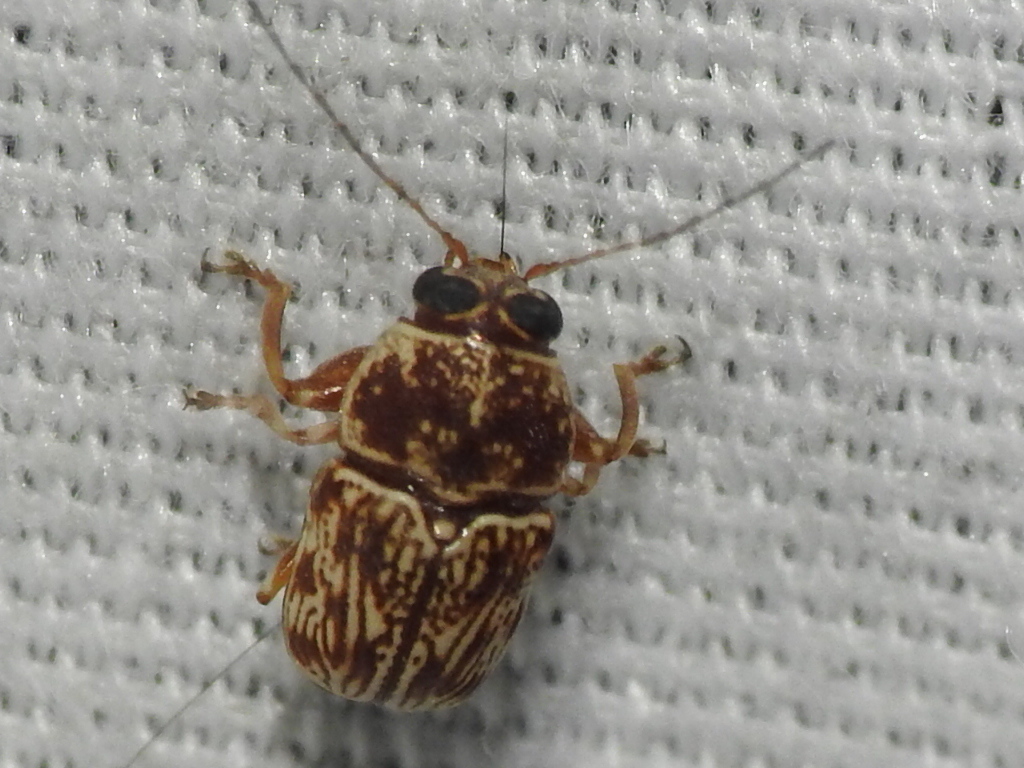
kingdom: Animalia
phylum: Arthropoda
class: Insecta
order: Coleoptera
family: Chrysomelidae
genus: Pachybrachis
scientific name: Pachybrachis
